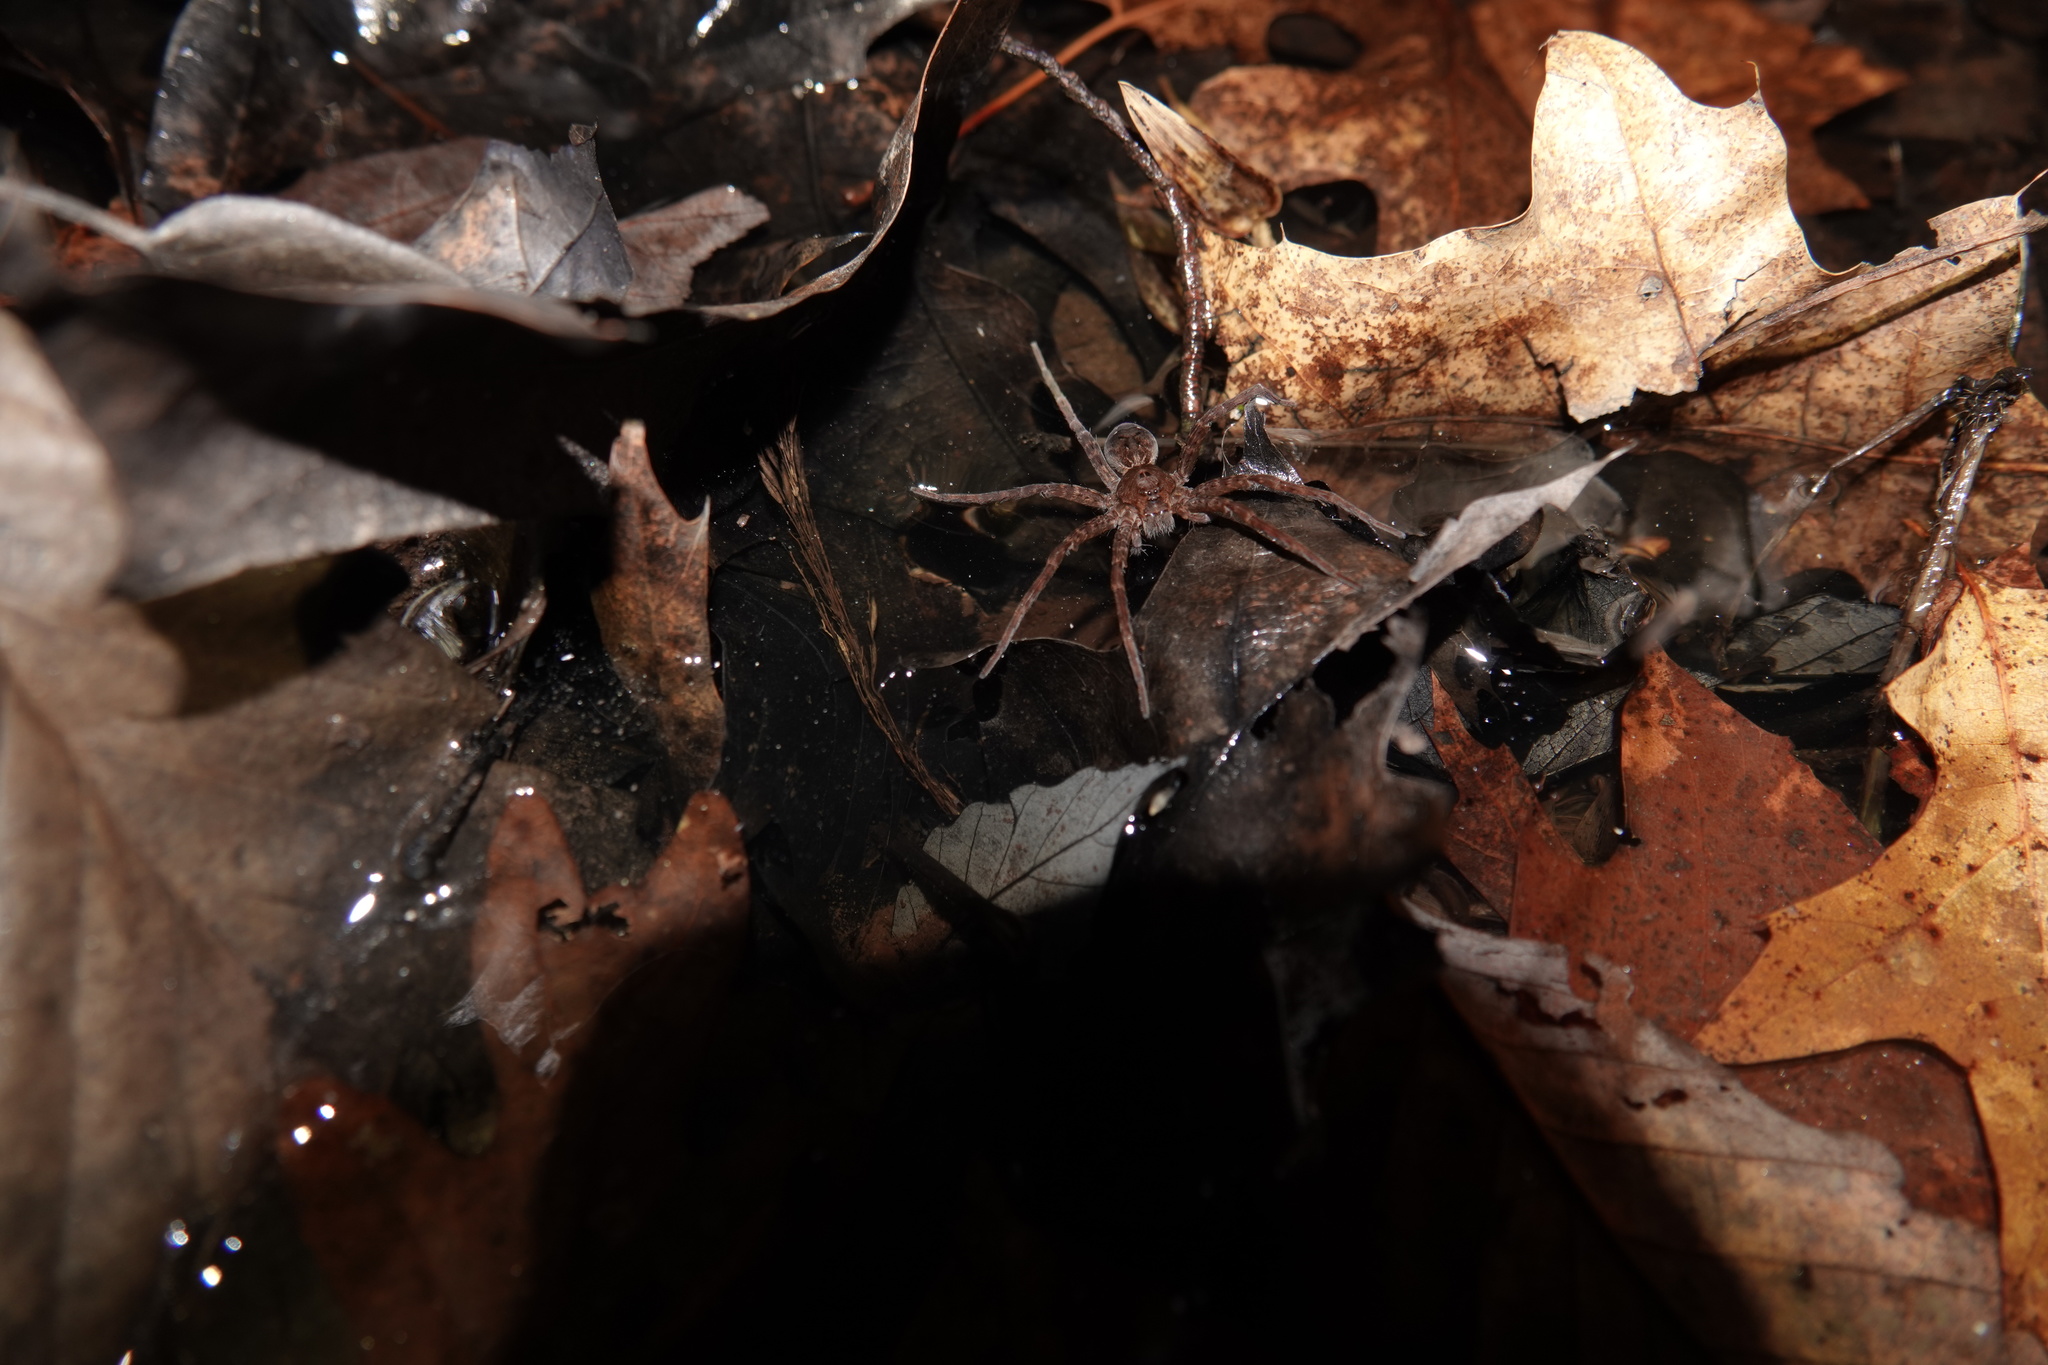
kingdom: Animalia
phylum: Arthropoda
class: Arachnida
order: Araneae
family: Pisauridae
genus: Dolomedes
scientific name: Dolomedes vittatus
